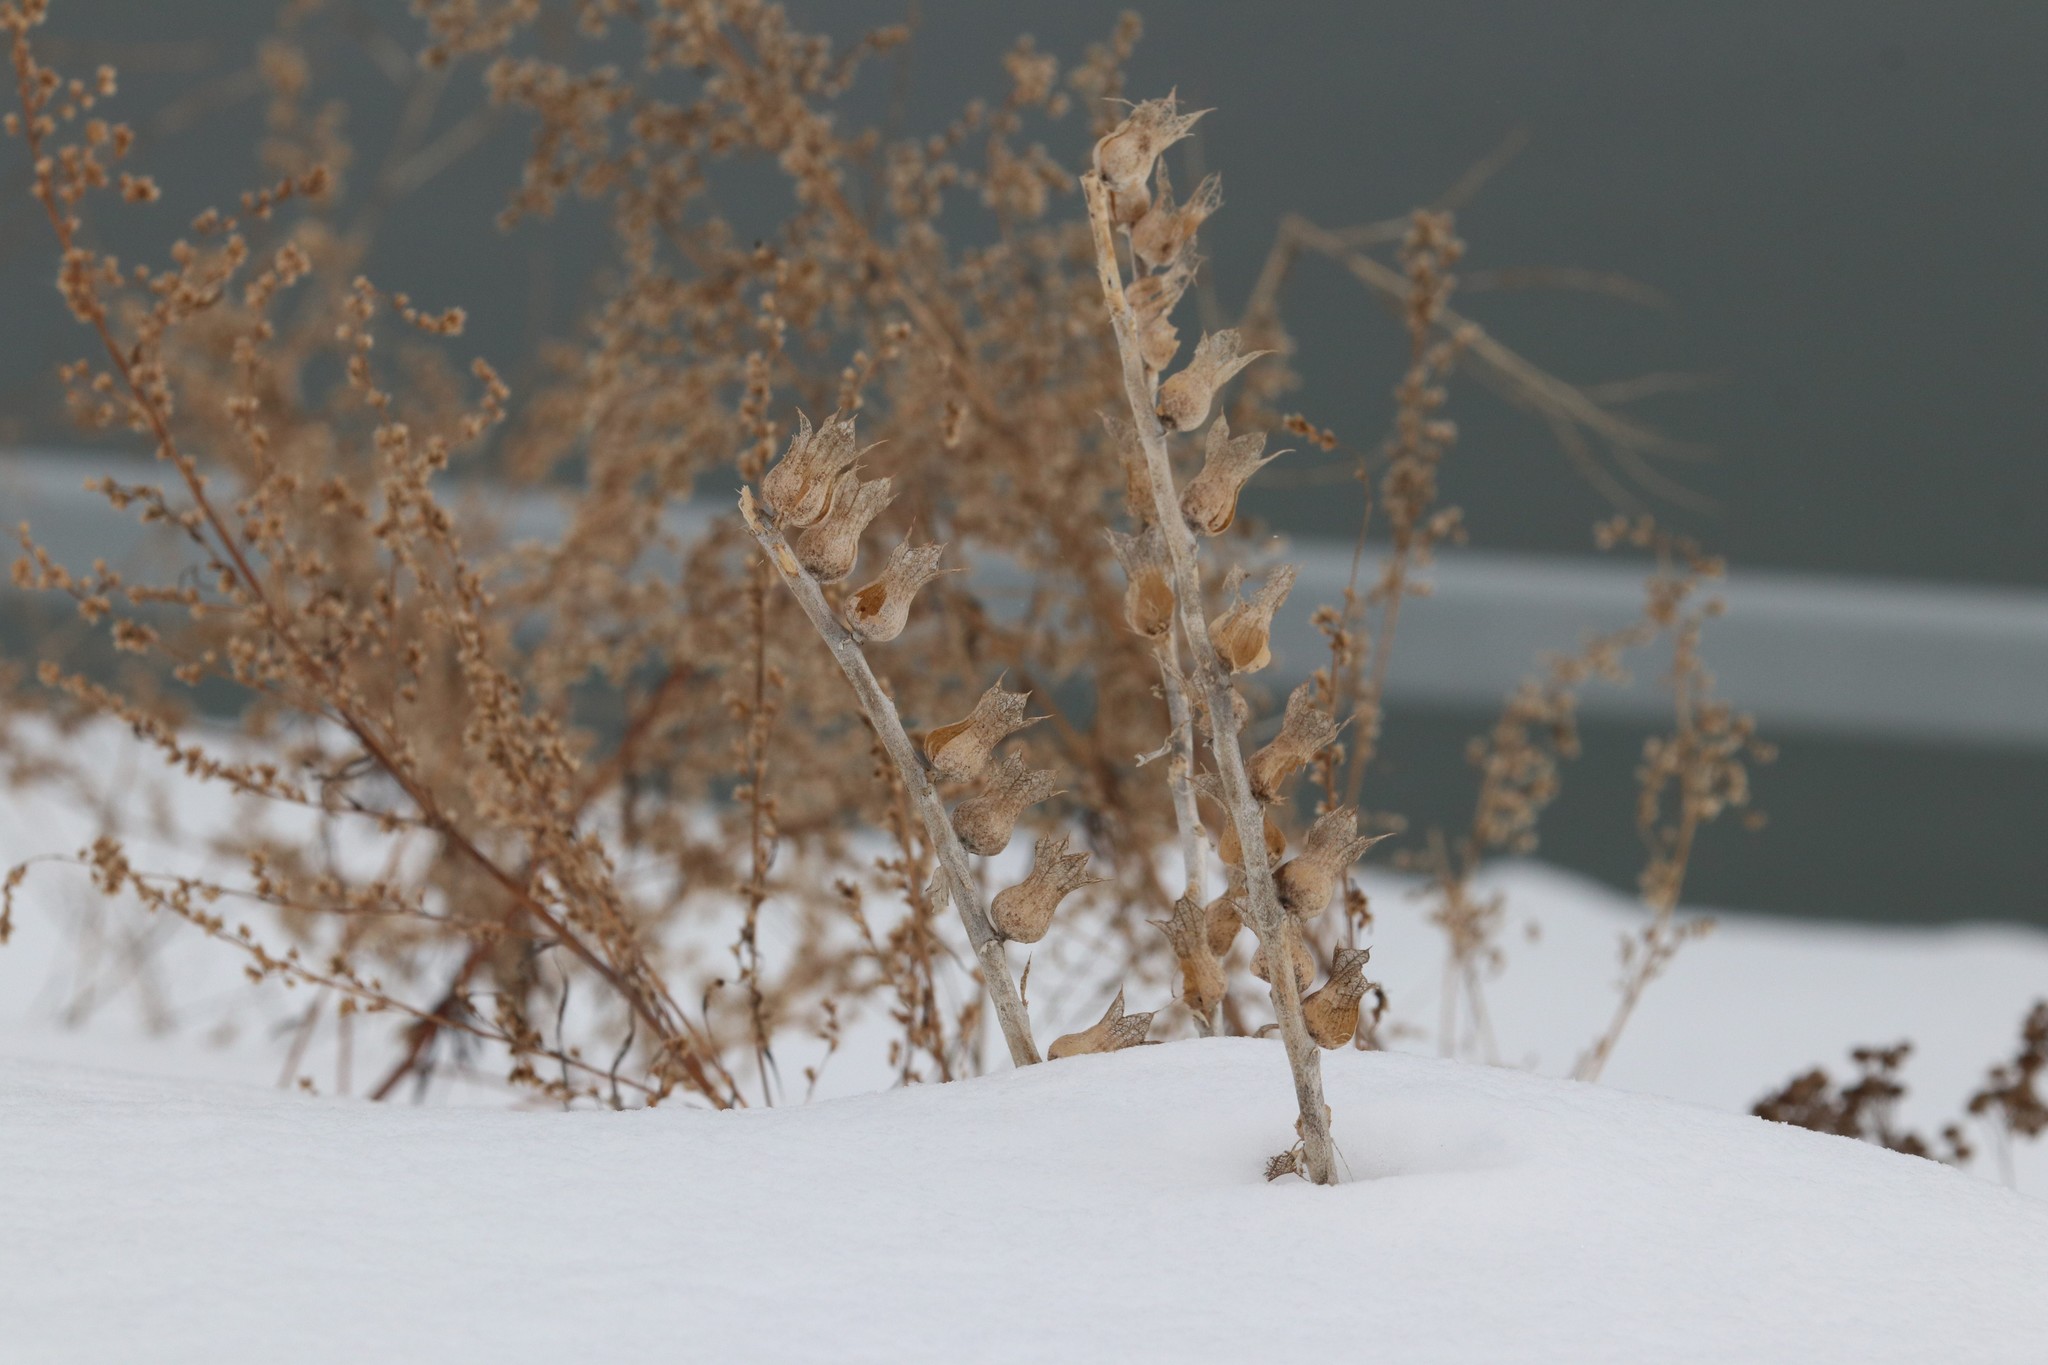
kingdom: Plantae
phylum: Tracheophyta
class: Magnoliopsida
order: Solanales
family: Solanaceae
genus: Hyoscyamus
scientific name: Hyoscyamus niger
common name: Henbane
